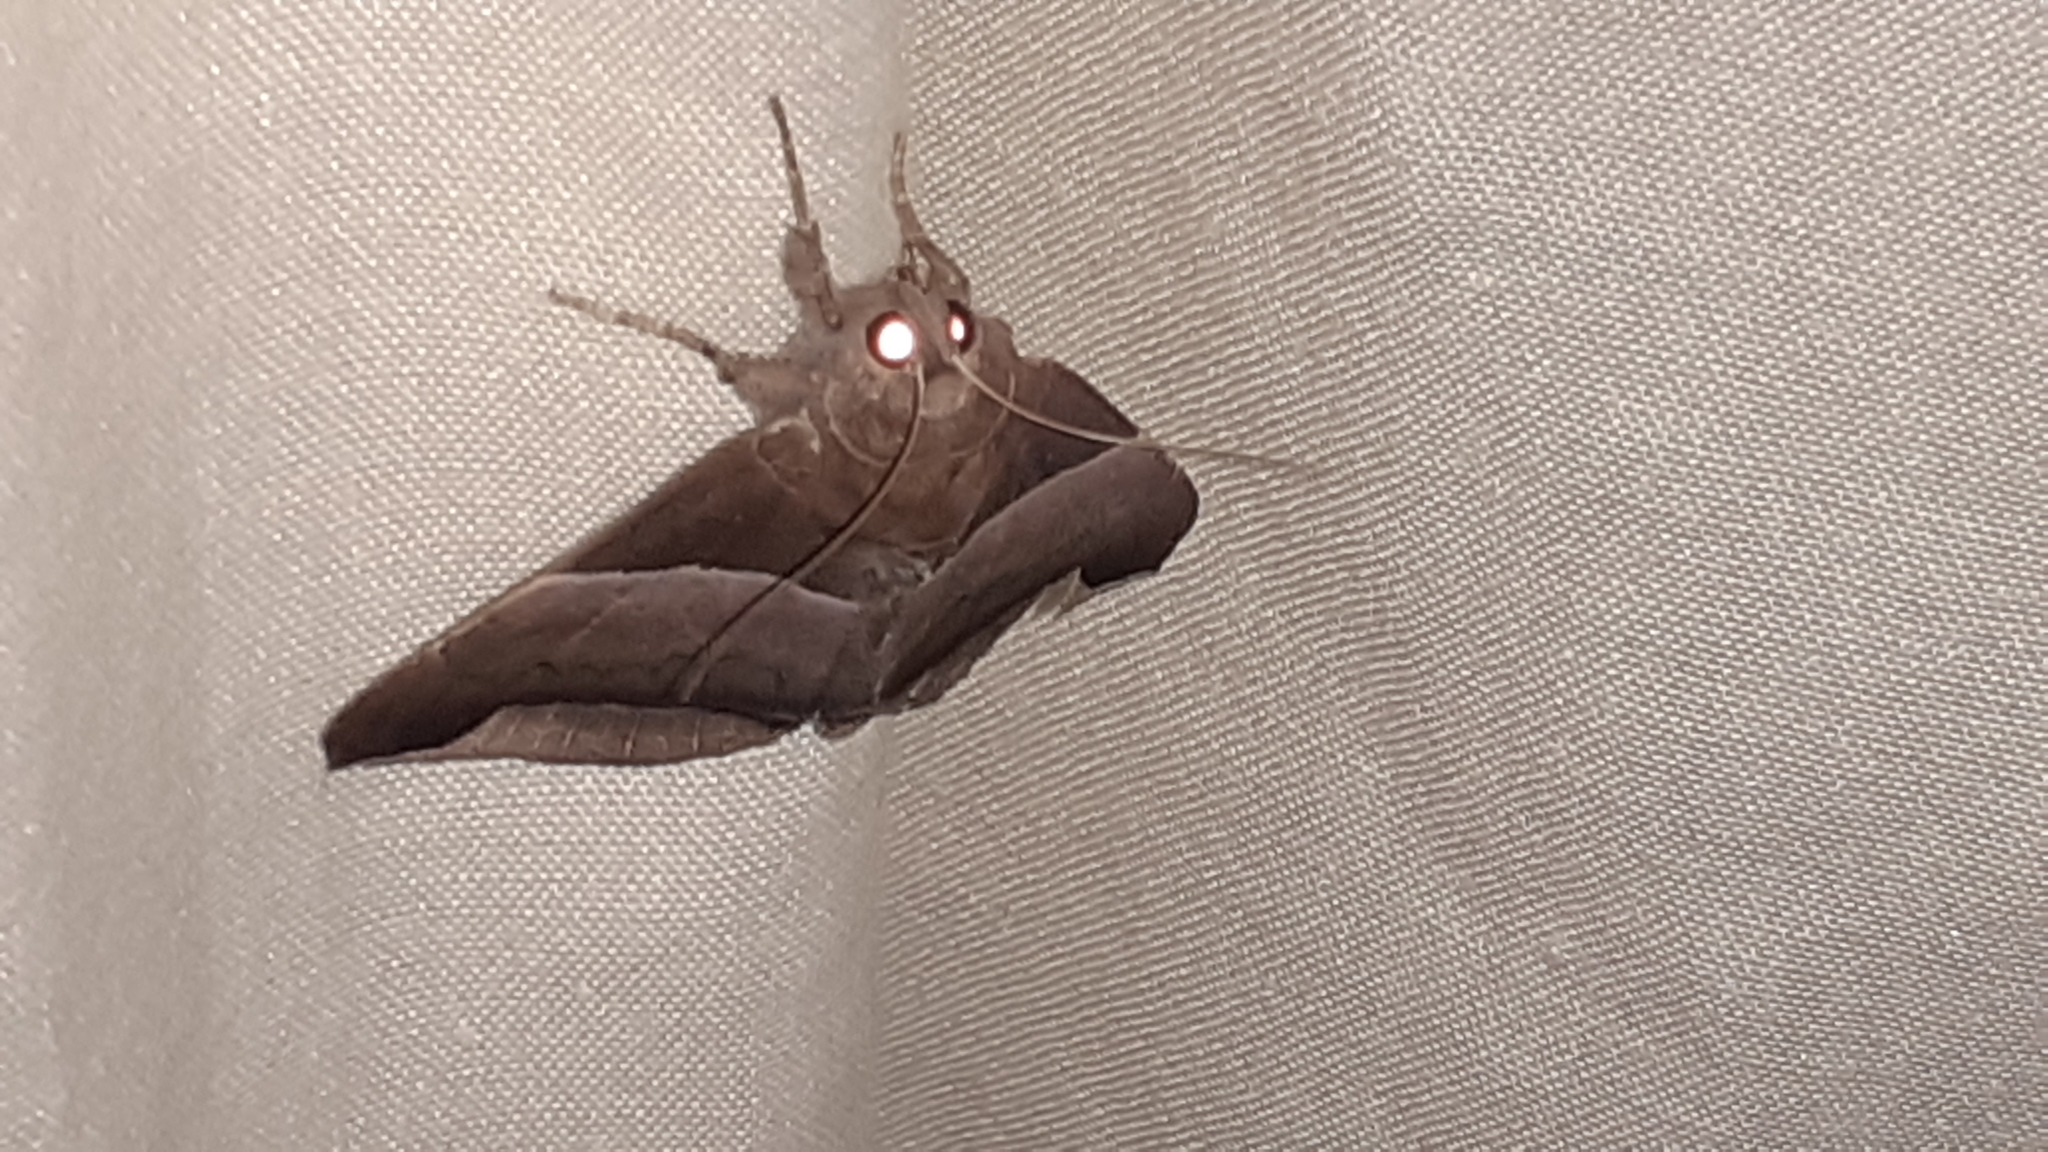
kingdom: Animalia
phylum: Arthropoda
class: Insecta
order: Lepidoptera
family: Erebidae
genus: Achaea
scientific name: Achaea echo
